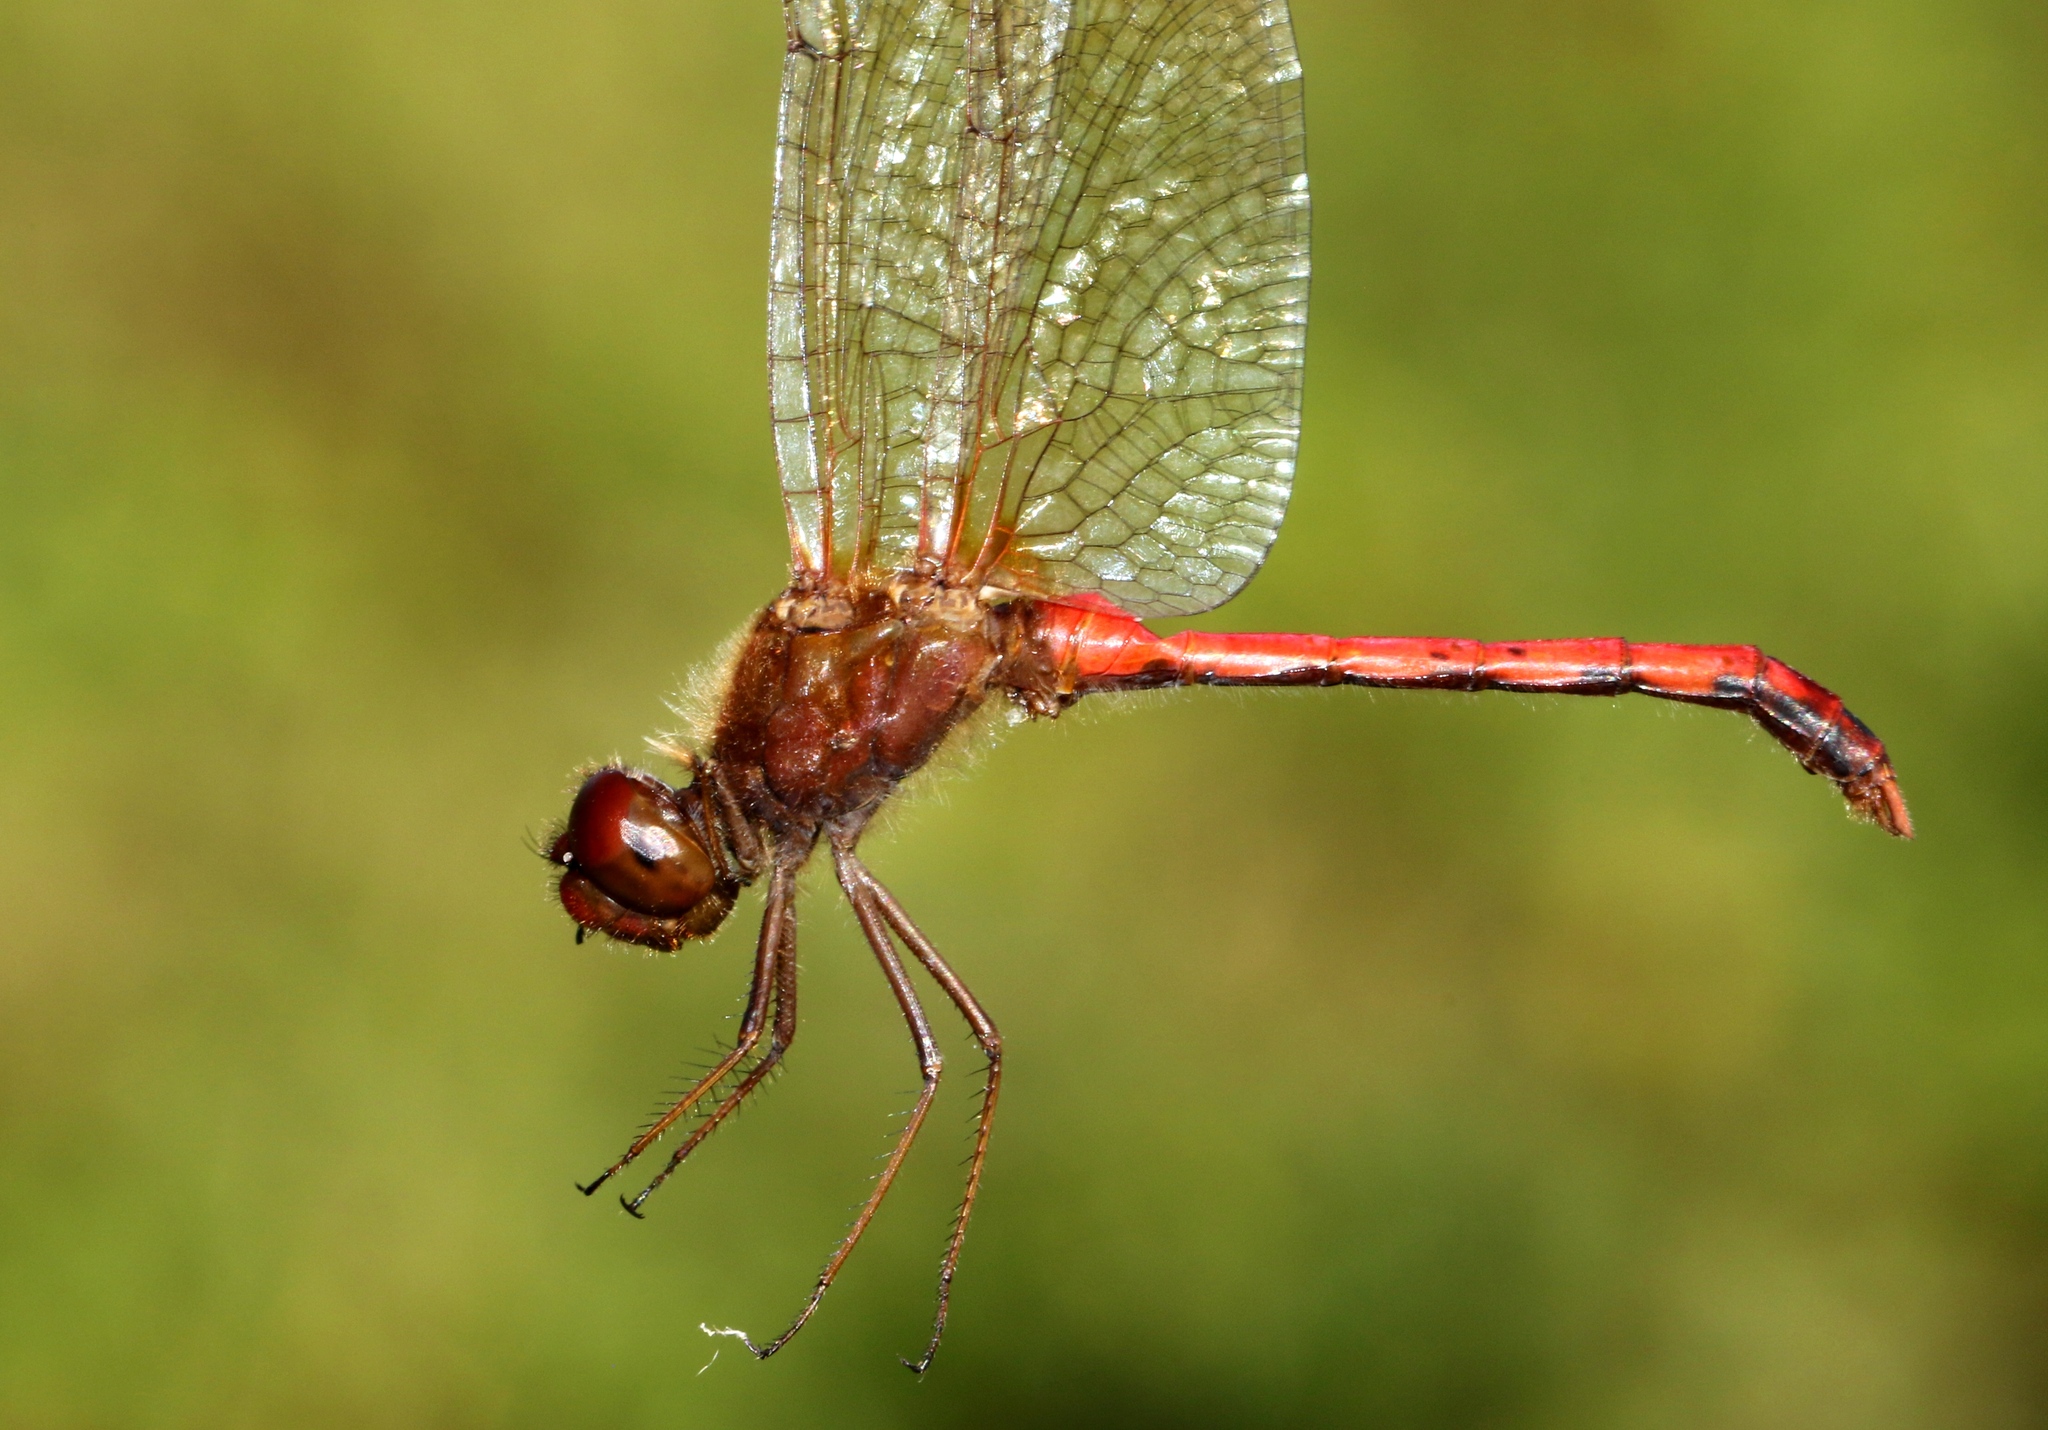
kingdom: Animalia
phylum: Arthropoda
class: Insecta
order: Odonata
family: Libellulidae
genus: Sympetrum
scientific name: Sympetrum vicinum
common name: Autumn meadowhawk
